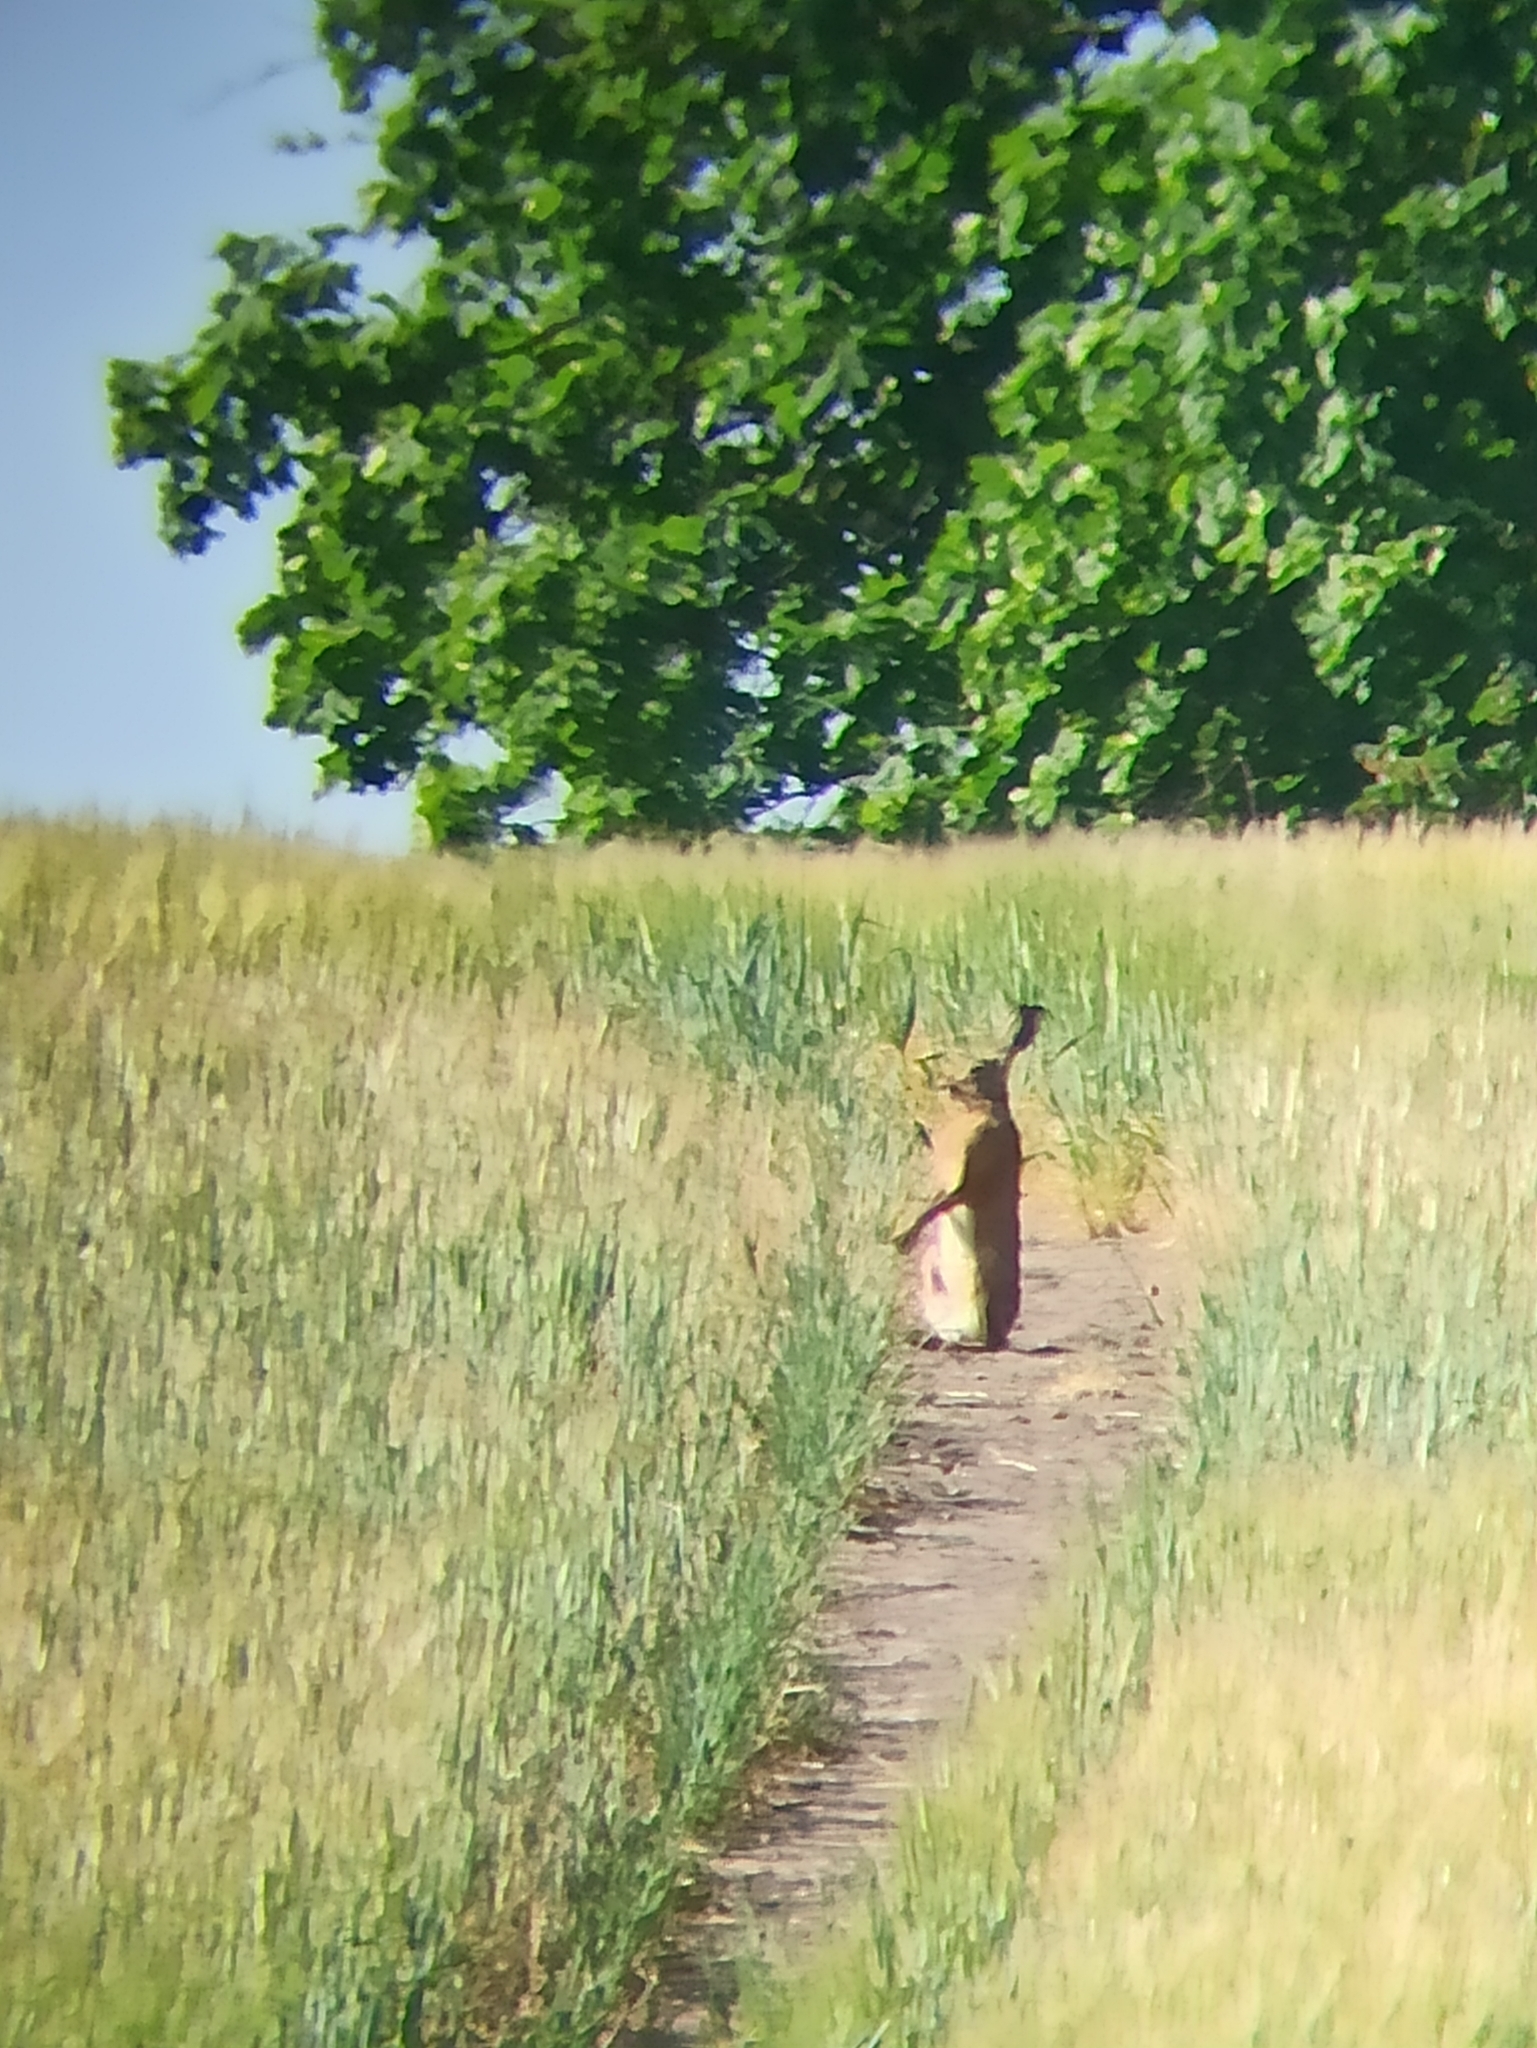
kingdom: Animalia
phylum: Chordata
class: Mammalia
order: Lagomorpha
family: Leporidae
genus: Lepus
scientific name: Lepus europaeus
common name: European hare
